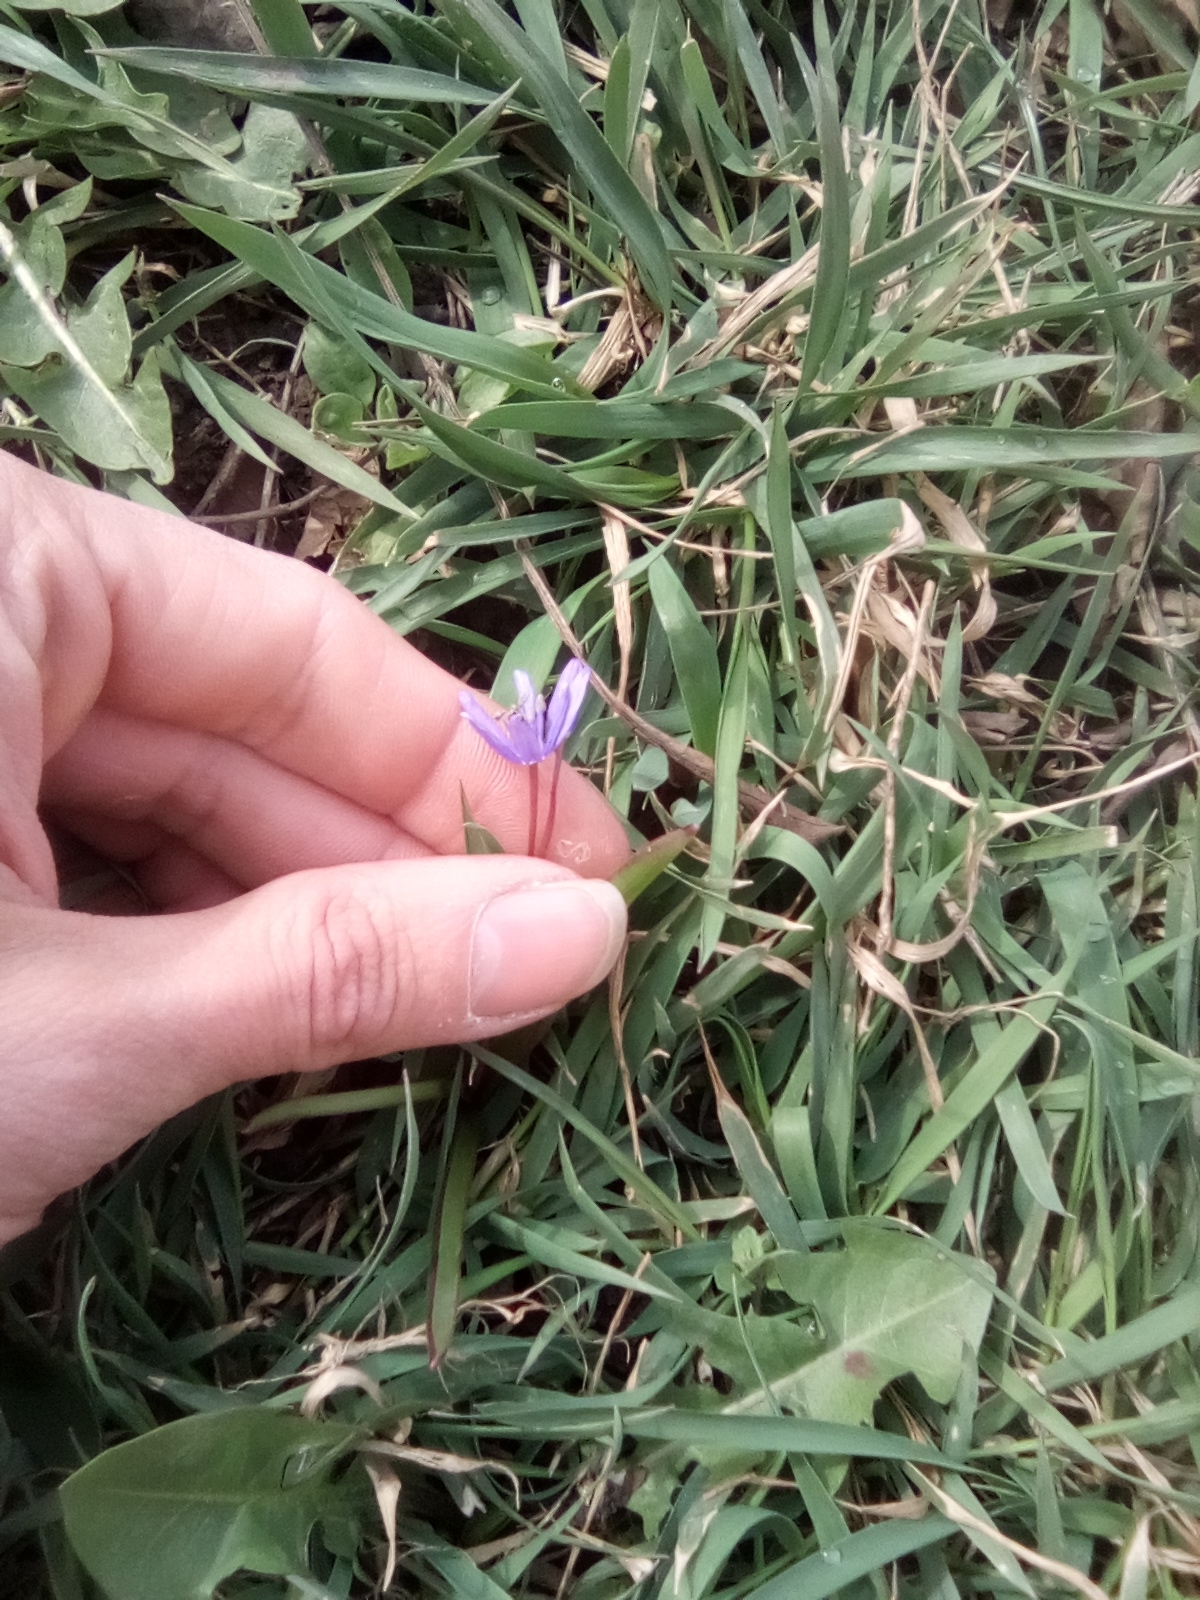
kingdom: Plantae
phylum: Tracheophyta
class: Liliopsida
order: Asparagales
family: Asparagaceae
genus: Scilla
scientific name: Scilla bifolia
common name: Alpine squill
